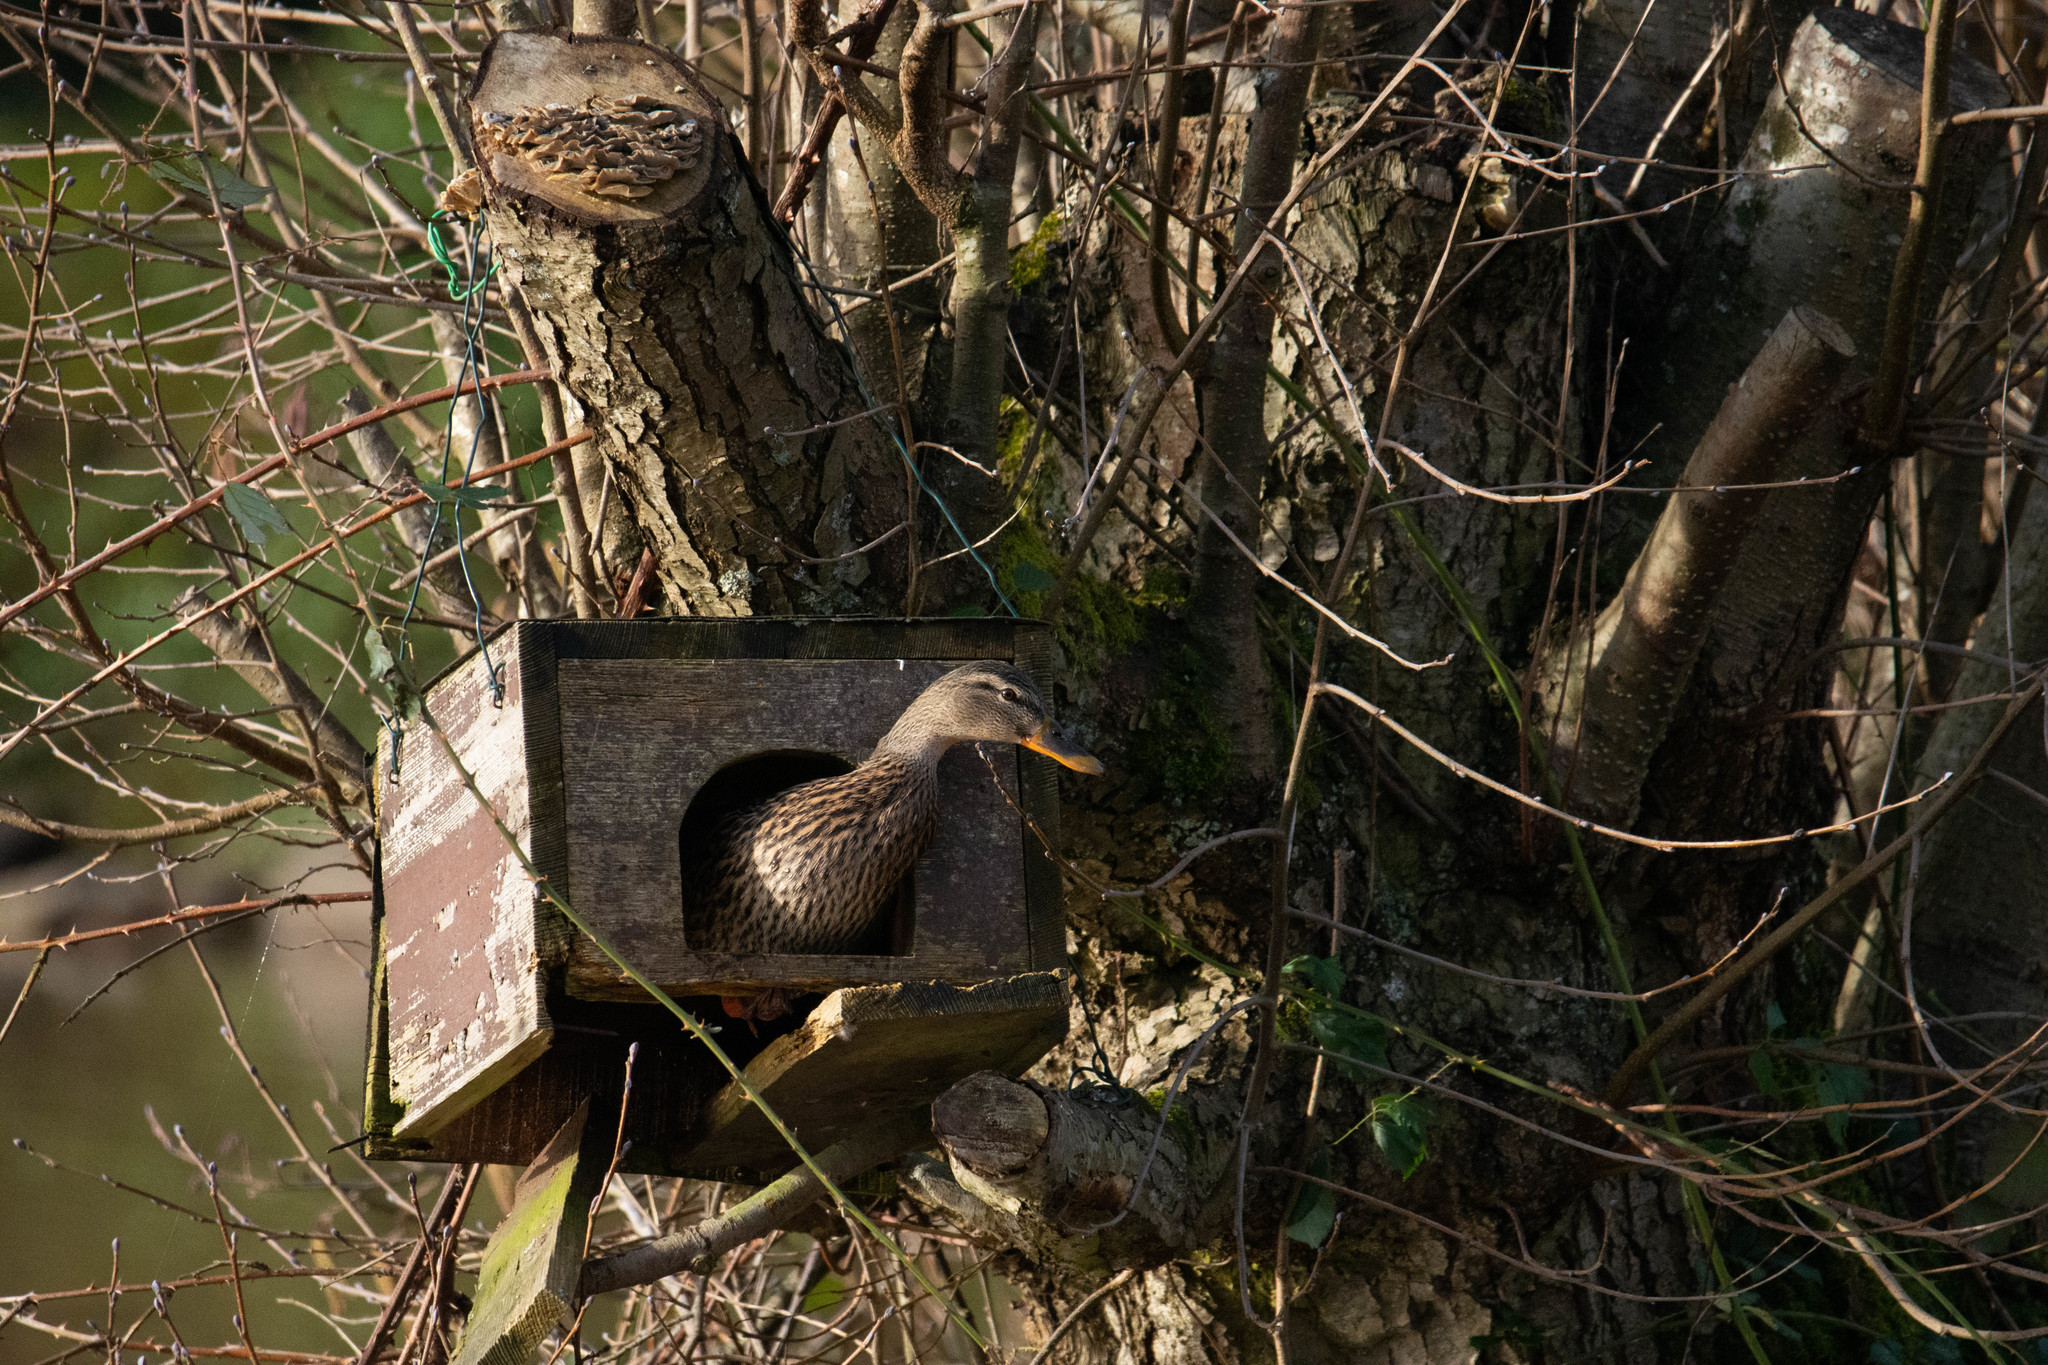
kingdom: Animalia
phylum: Chordata
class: Aves
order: Anseriformes
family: Anatidae
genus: Anas
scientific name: Anas platyrhynchos
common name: Mallard
